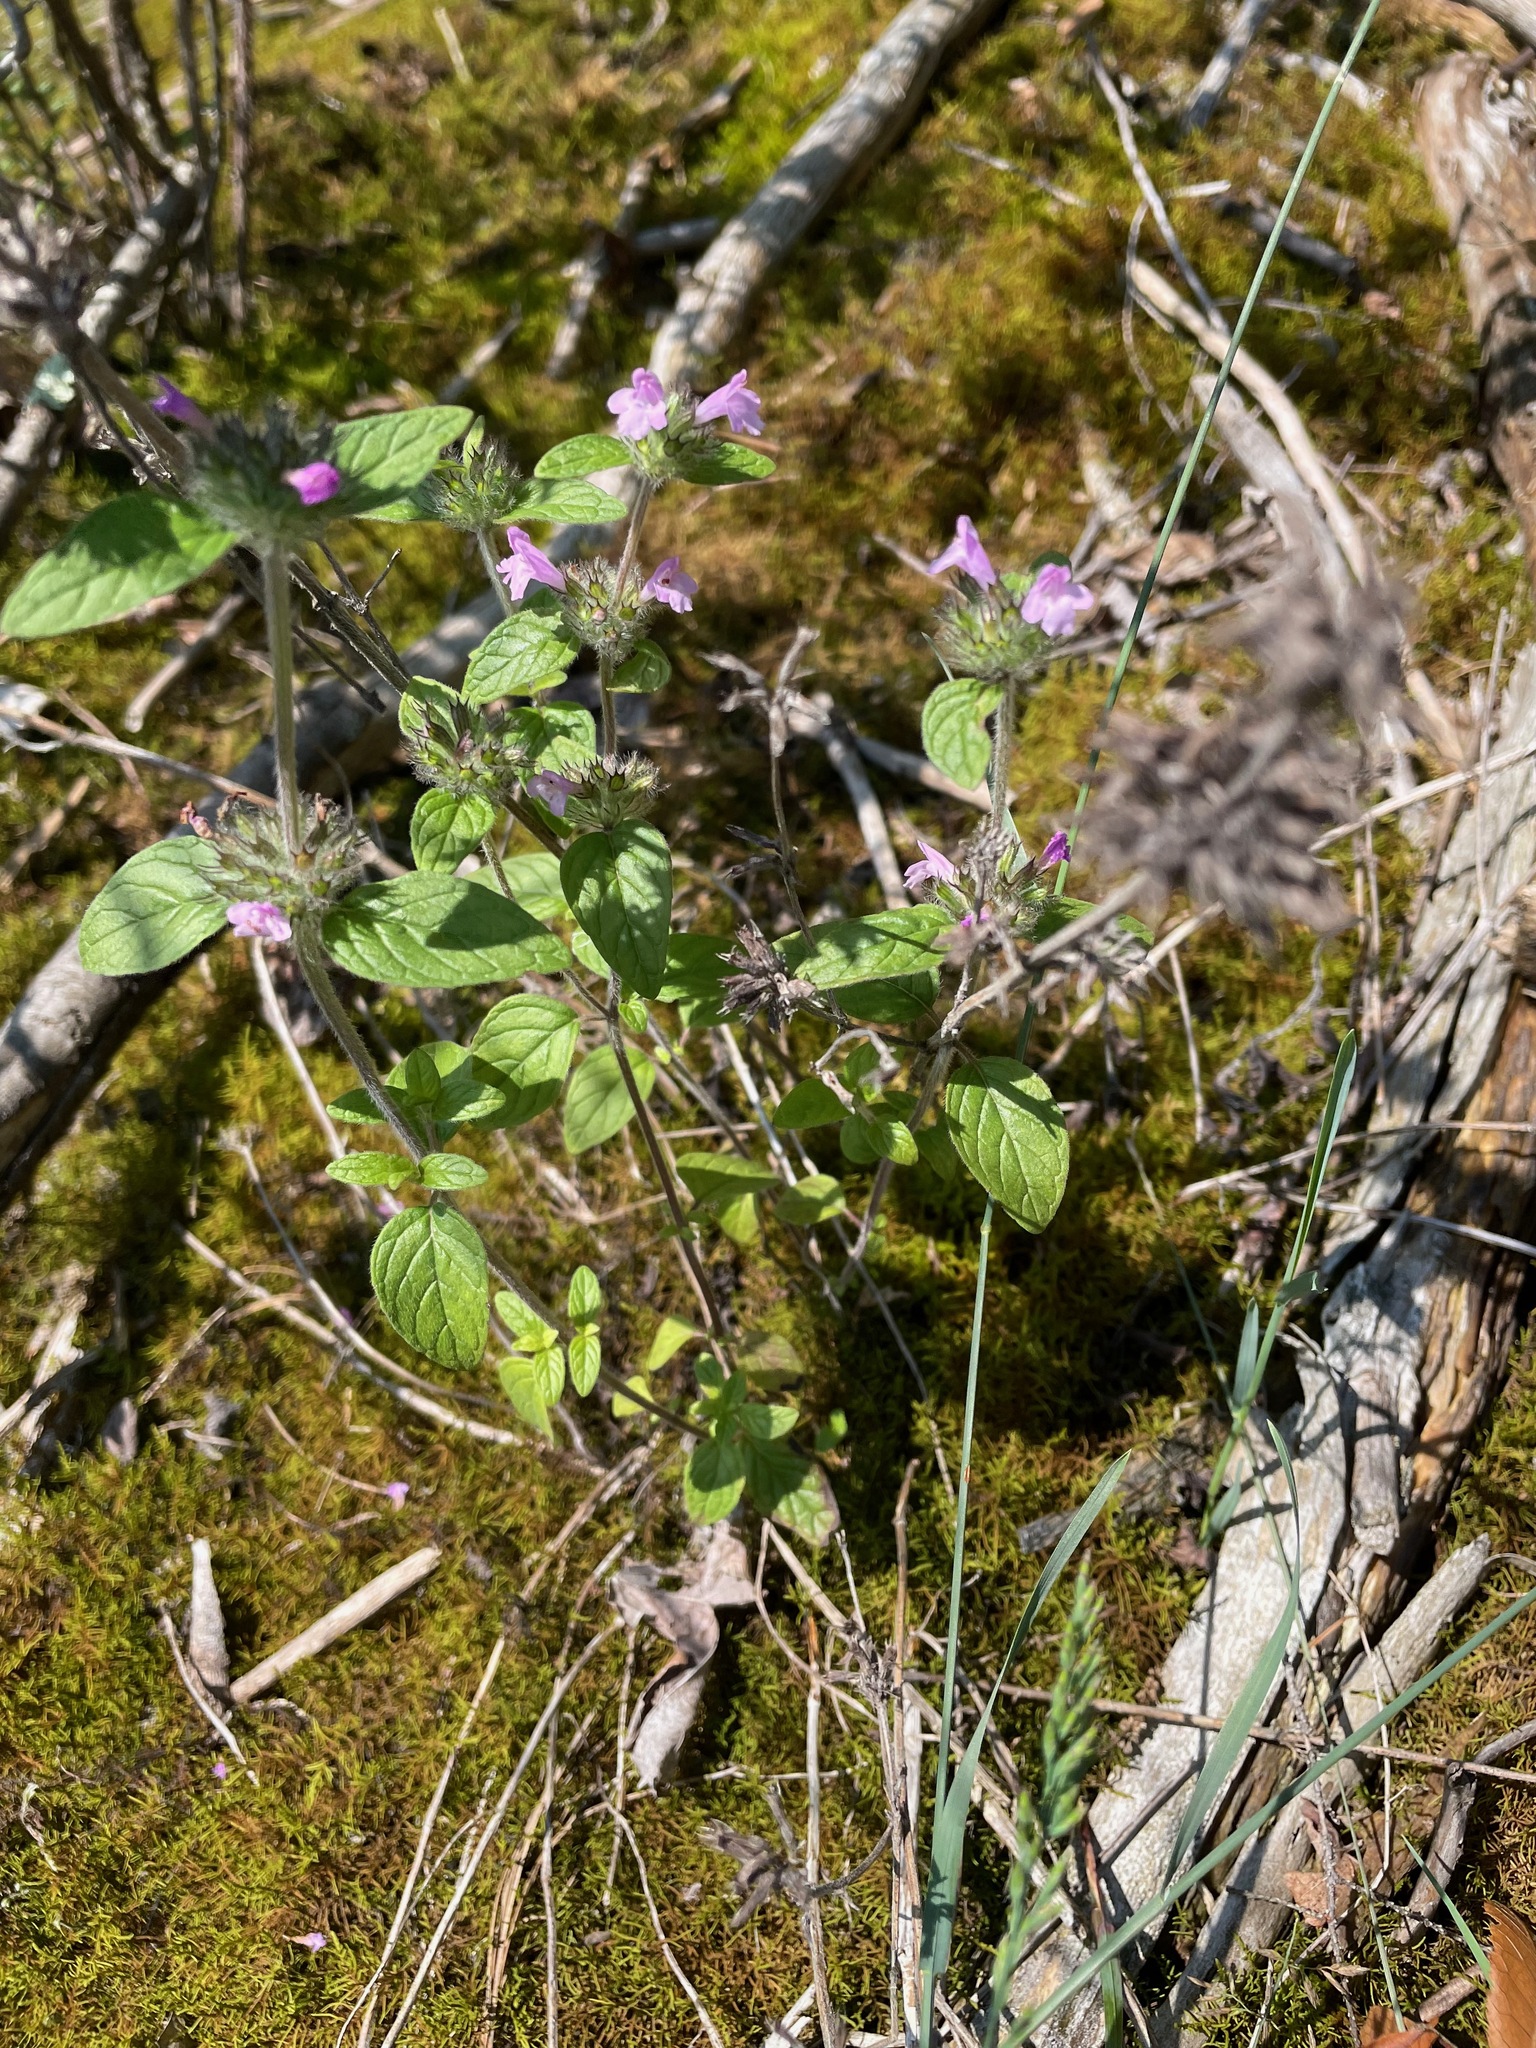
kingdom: Plantae
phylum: Tracheophyta
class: Magnoliopsida
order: Lamiales
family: Lamiaceae
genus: Clinopodium
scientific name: Clinopodium vulgare
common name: Wild basil
